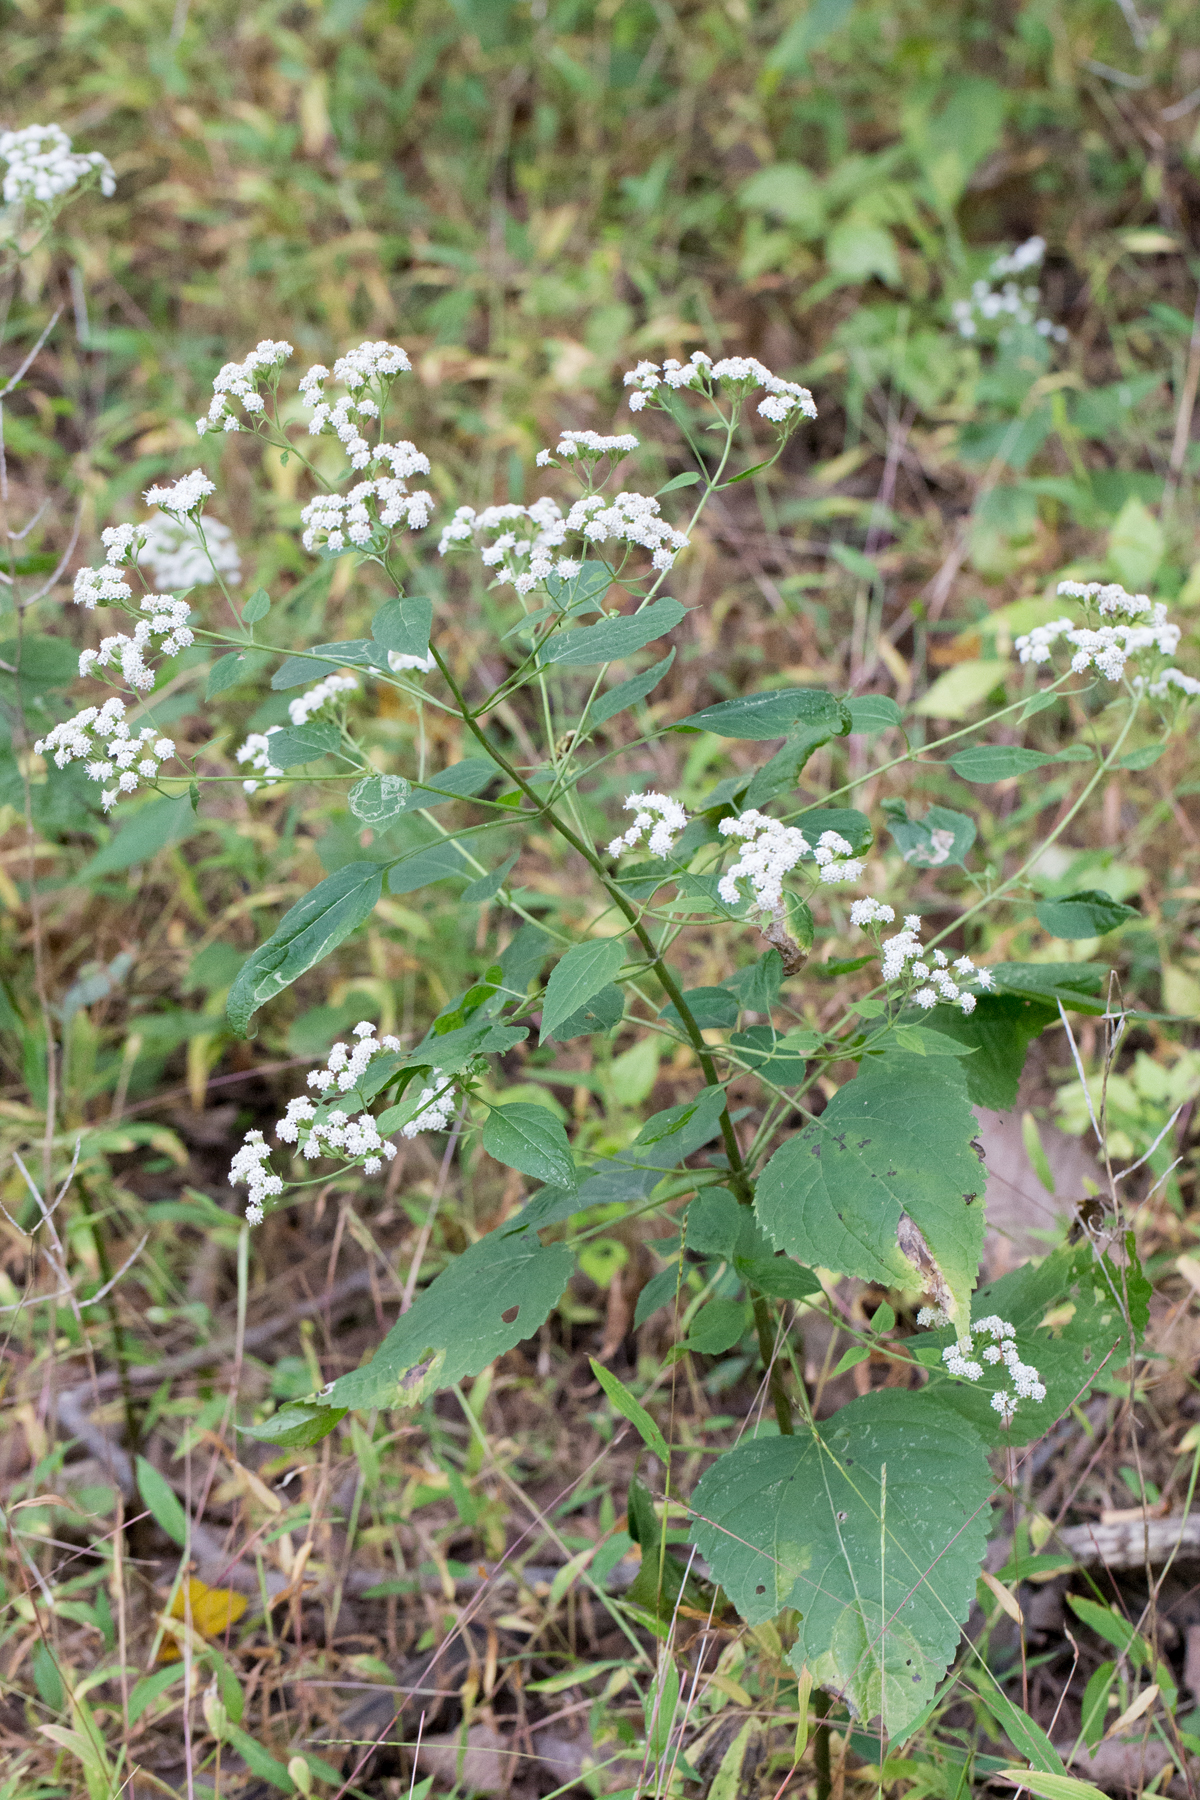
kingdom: Plantae
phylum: Tracheophyta
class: Magnoliopsida
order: Asterales
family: Asteraceae
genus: Ageratina
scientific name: Ageratina altissima
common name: White snakeroot
